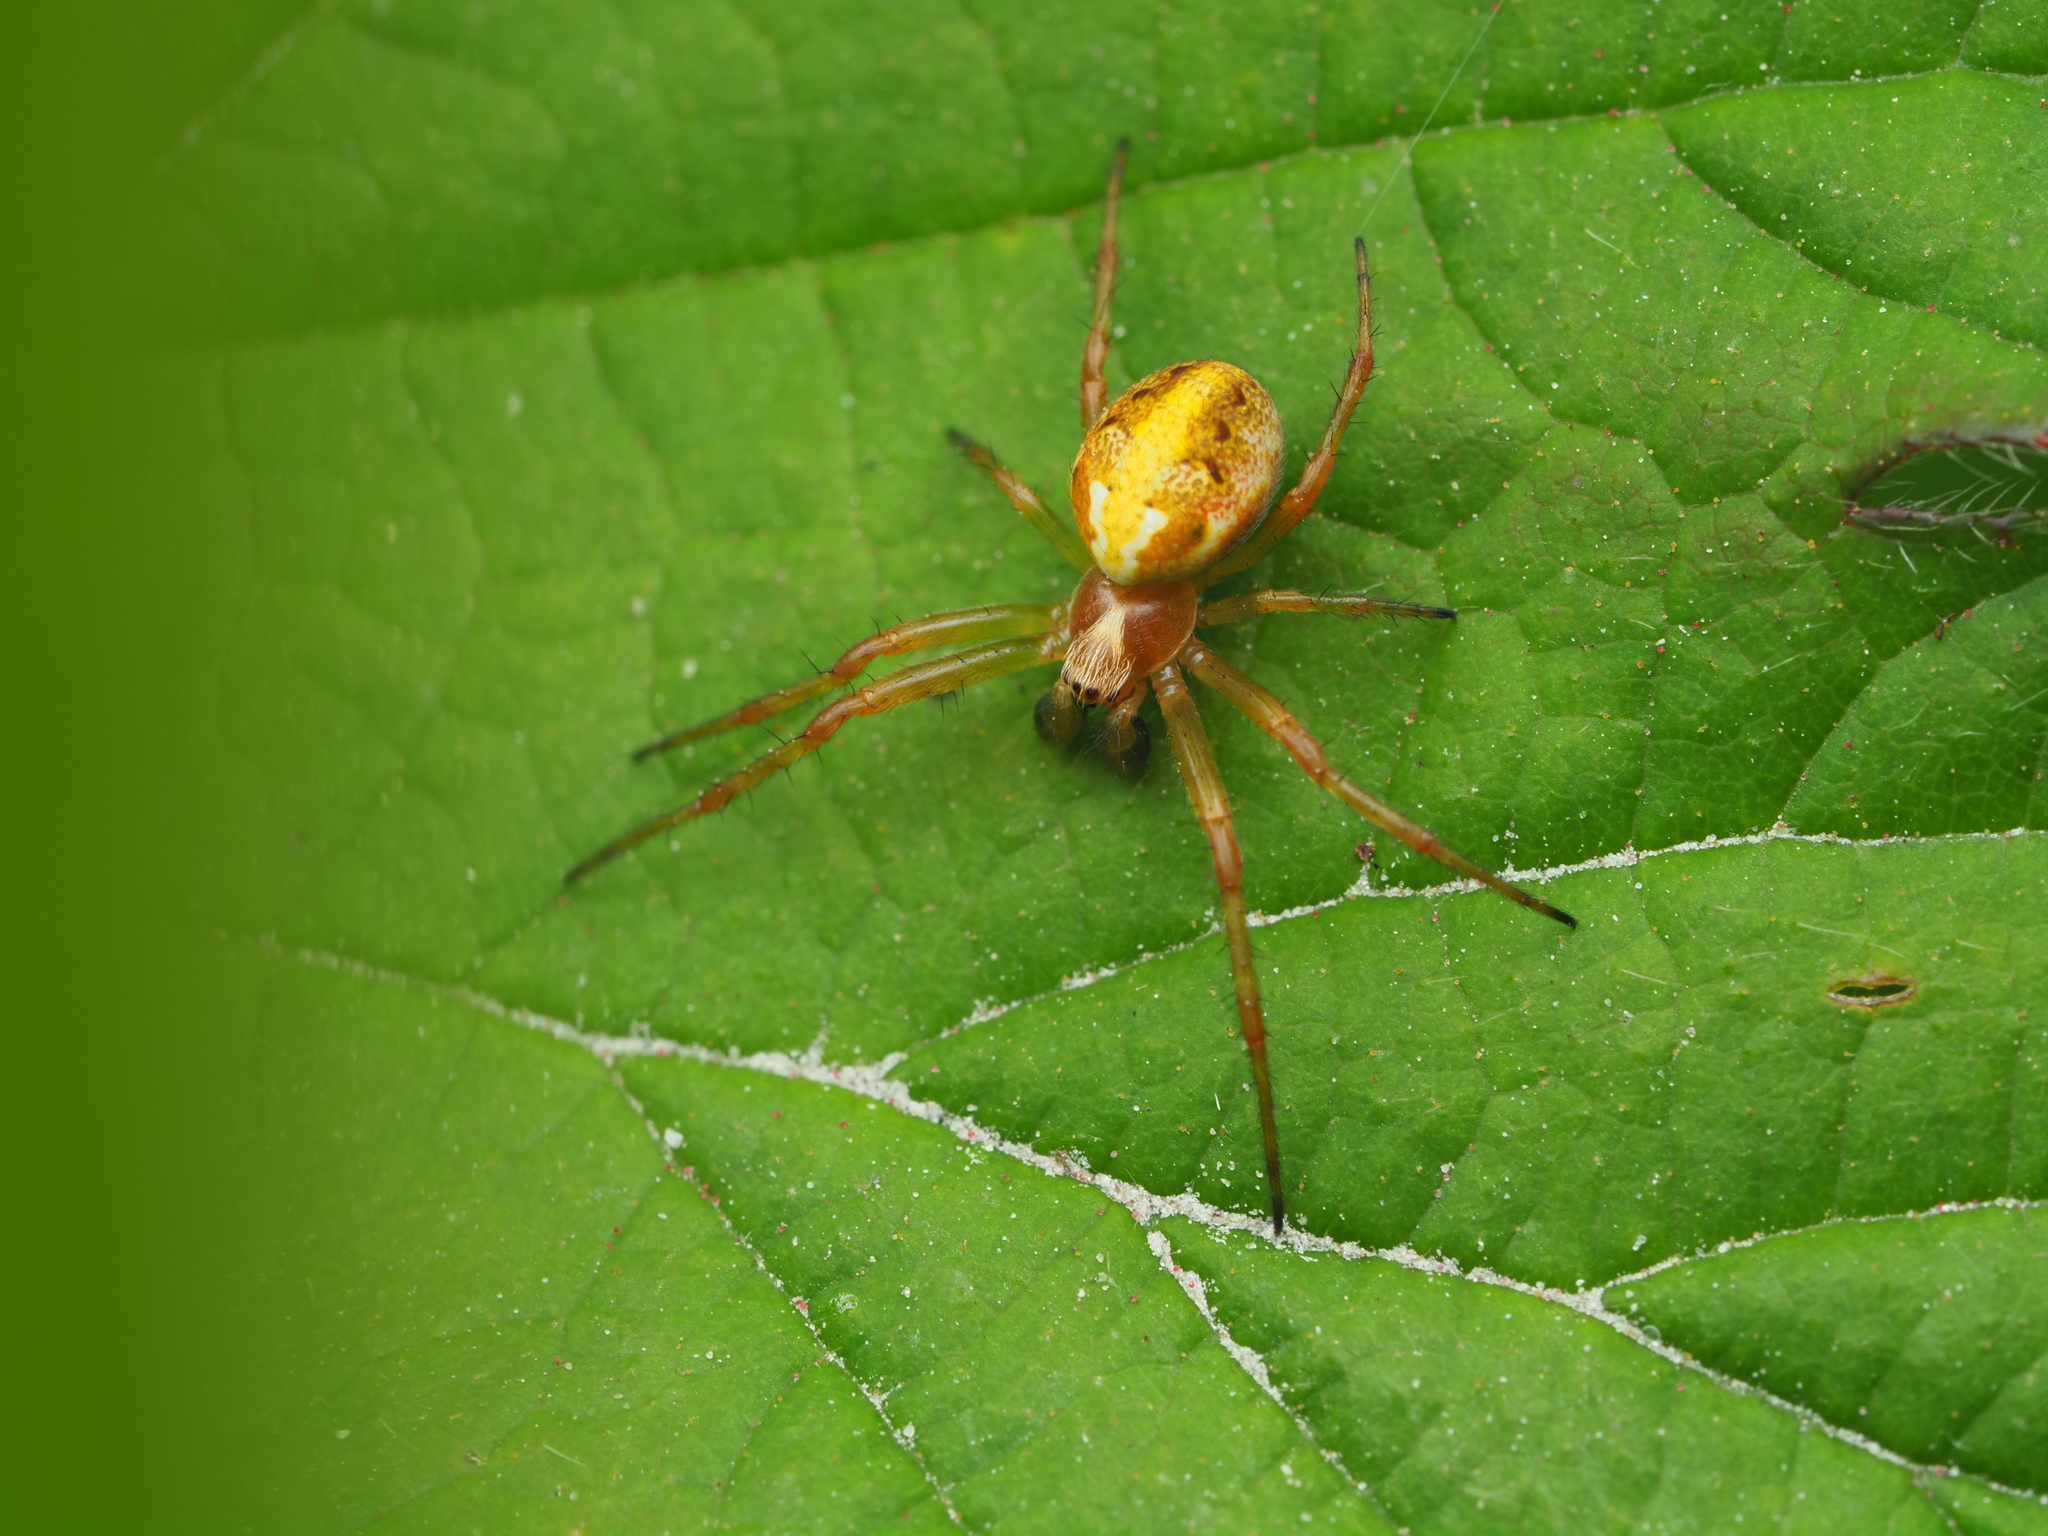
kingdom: Animalia
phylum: Arthropoda
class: Arachnida
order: Araneae
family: Araneidae
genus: Colaranea
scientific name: Colaranea verutum
